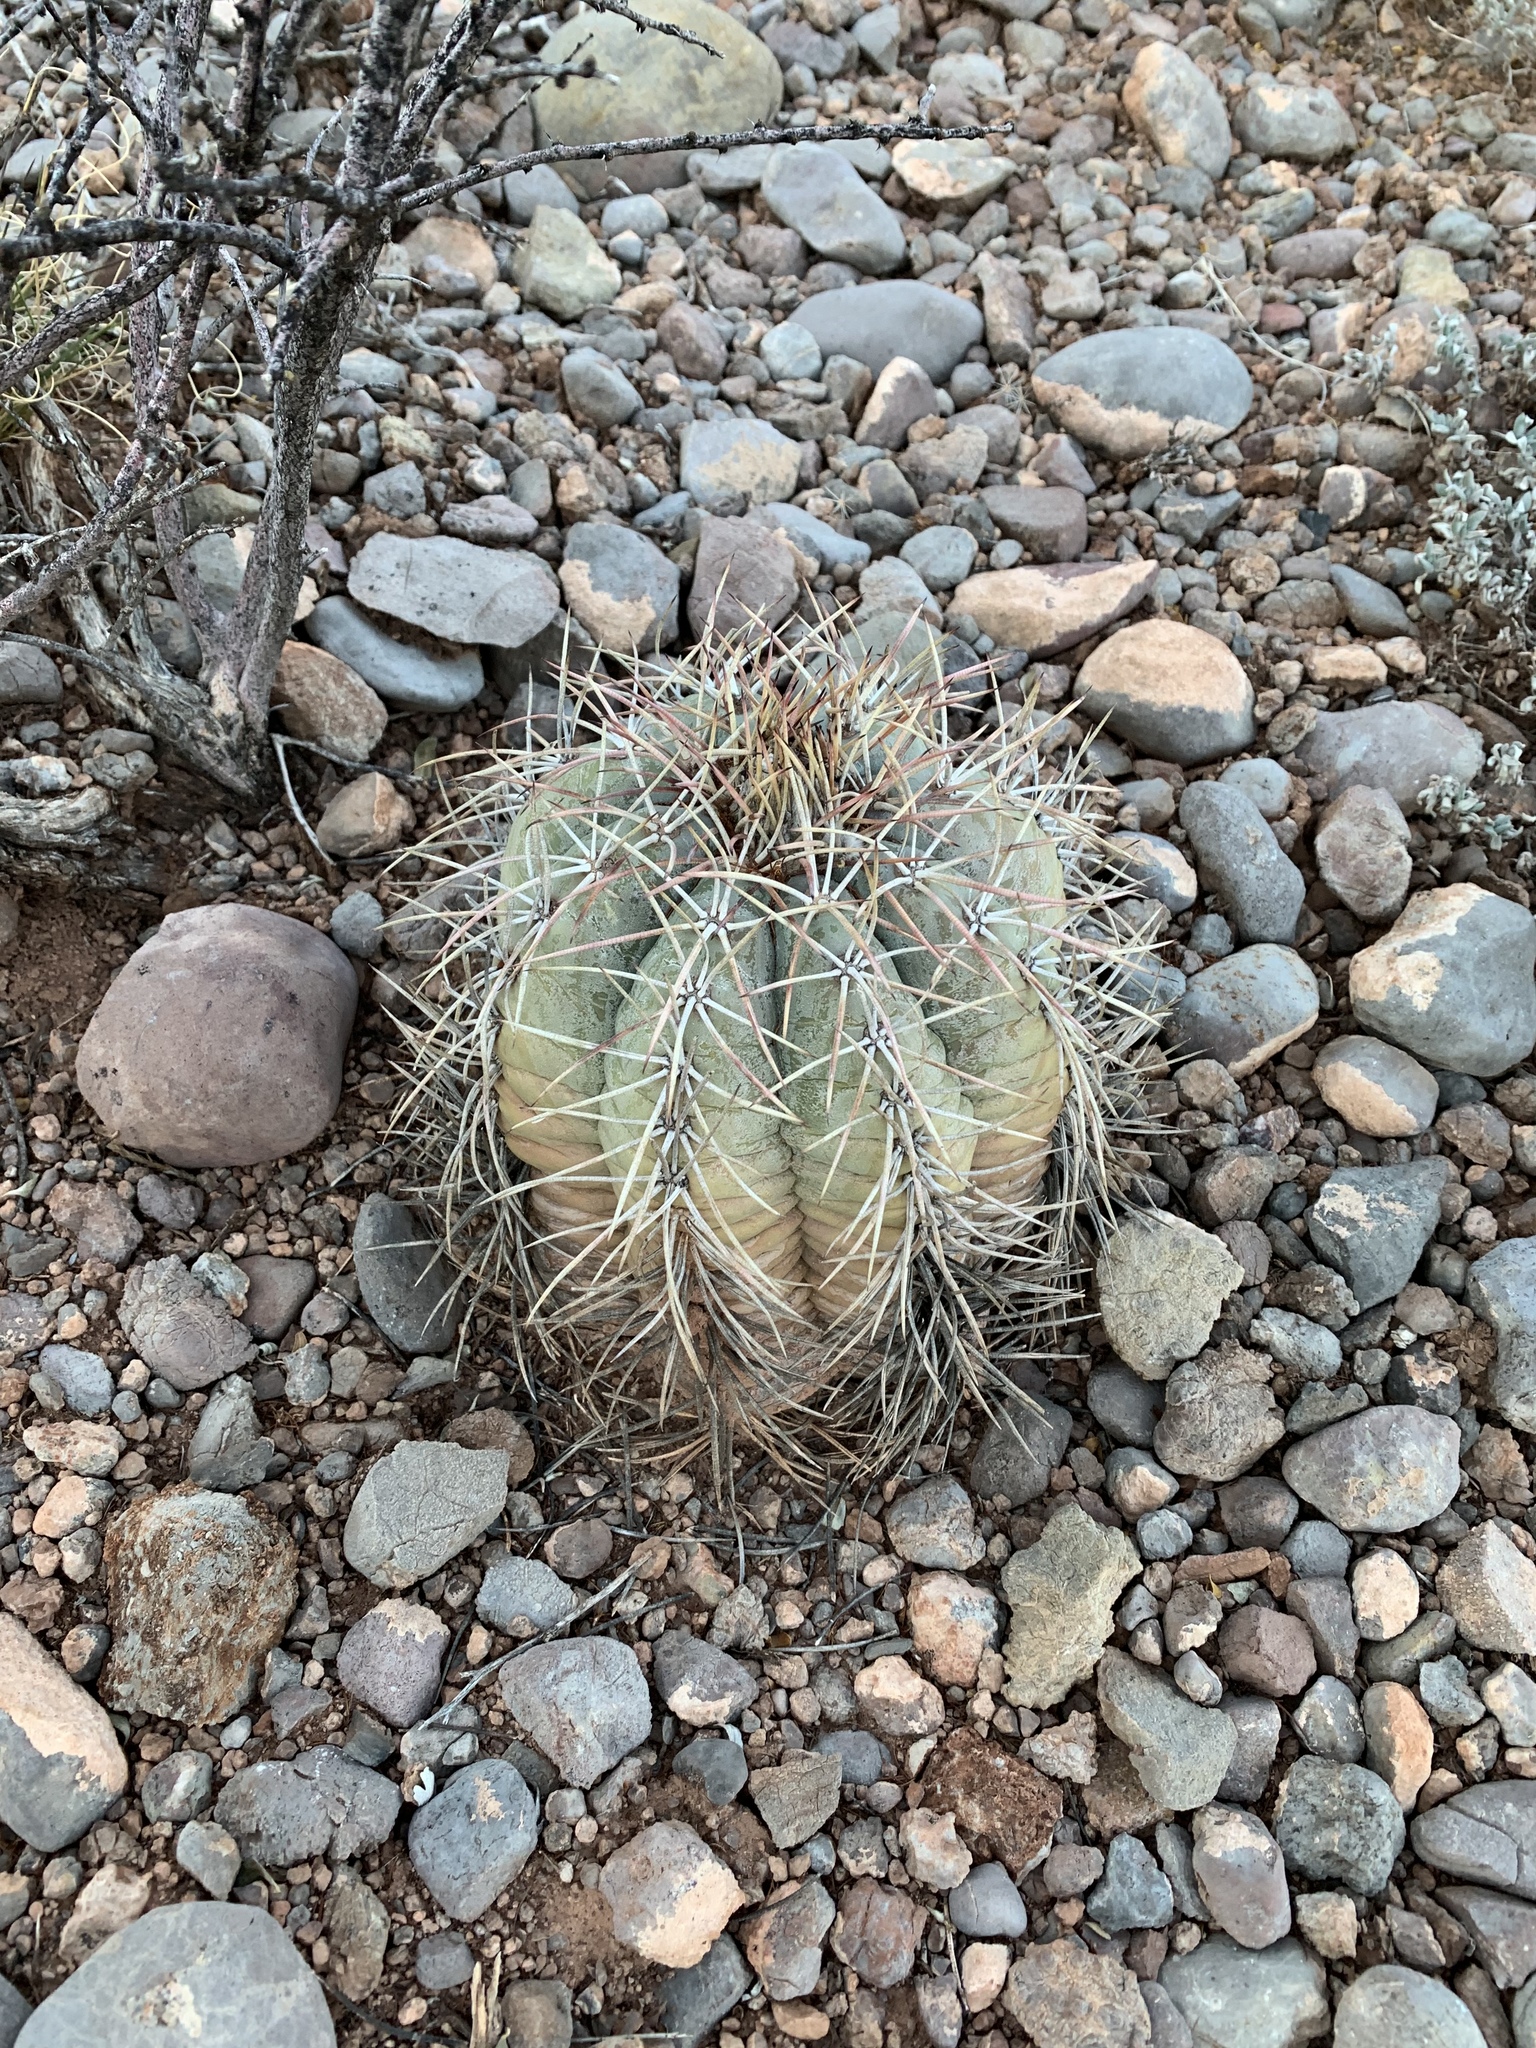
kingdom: Plantae
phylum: Tracheophyta
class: Magnoliopsida
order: Caryophyllales
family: Cactaceae
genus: Echinocactus
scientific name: Echinocactus horizonthalonius
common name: Devilshead
